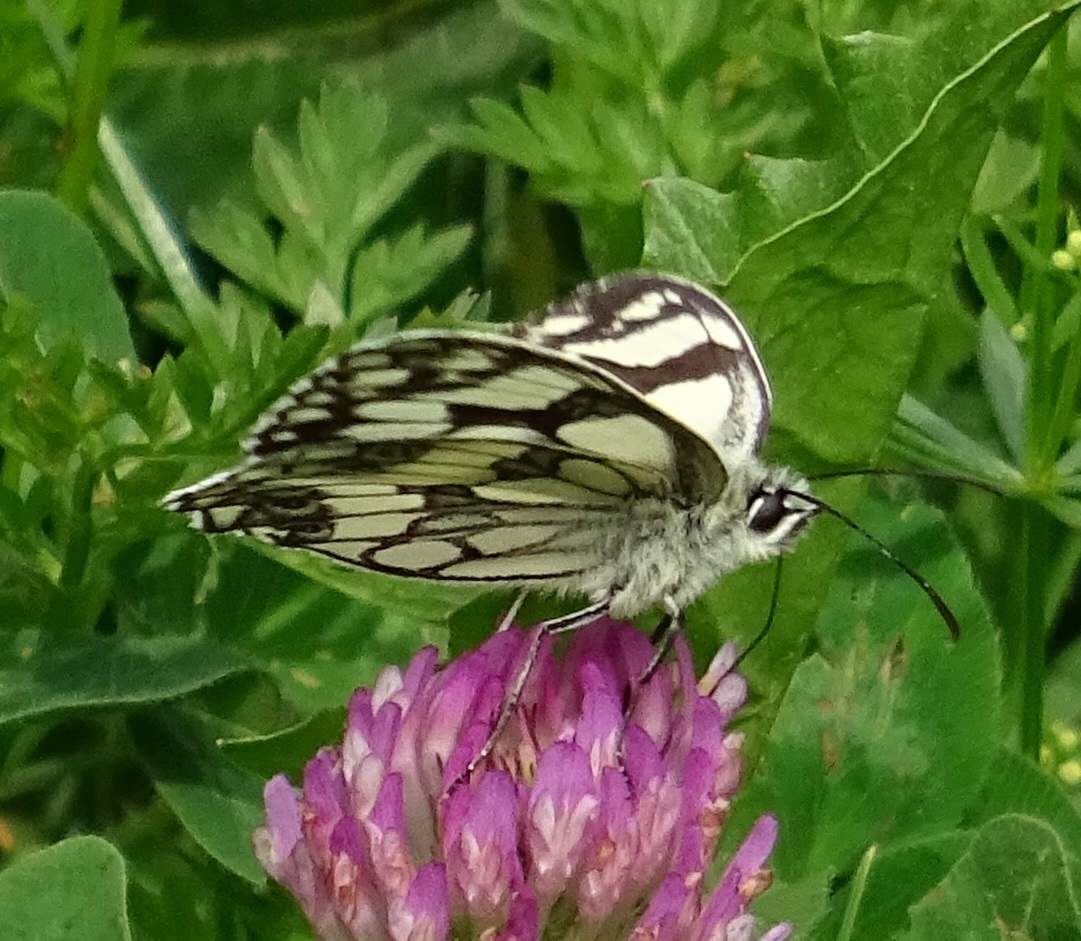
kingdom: Animalia
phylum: Arthropoda
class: Insecta
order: Lepidoptera
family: Nymphalidae
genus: Melanargia
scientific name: Melanargia galathea
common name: Marbled white
